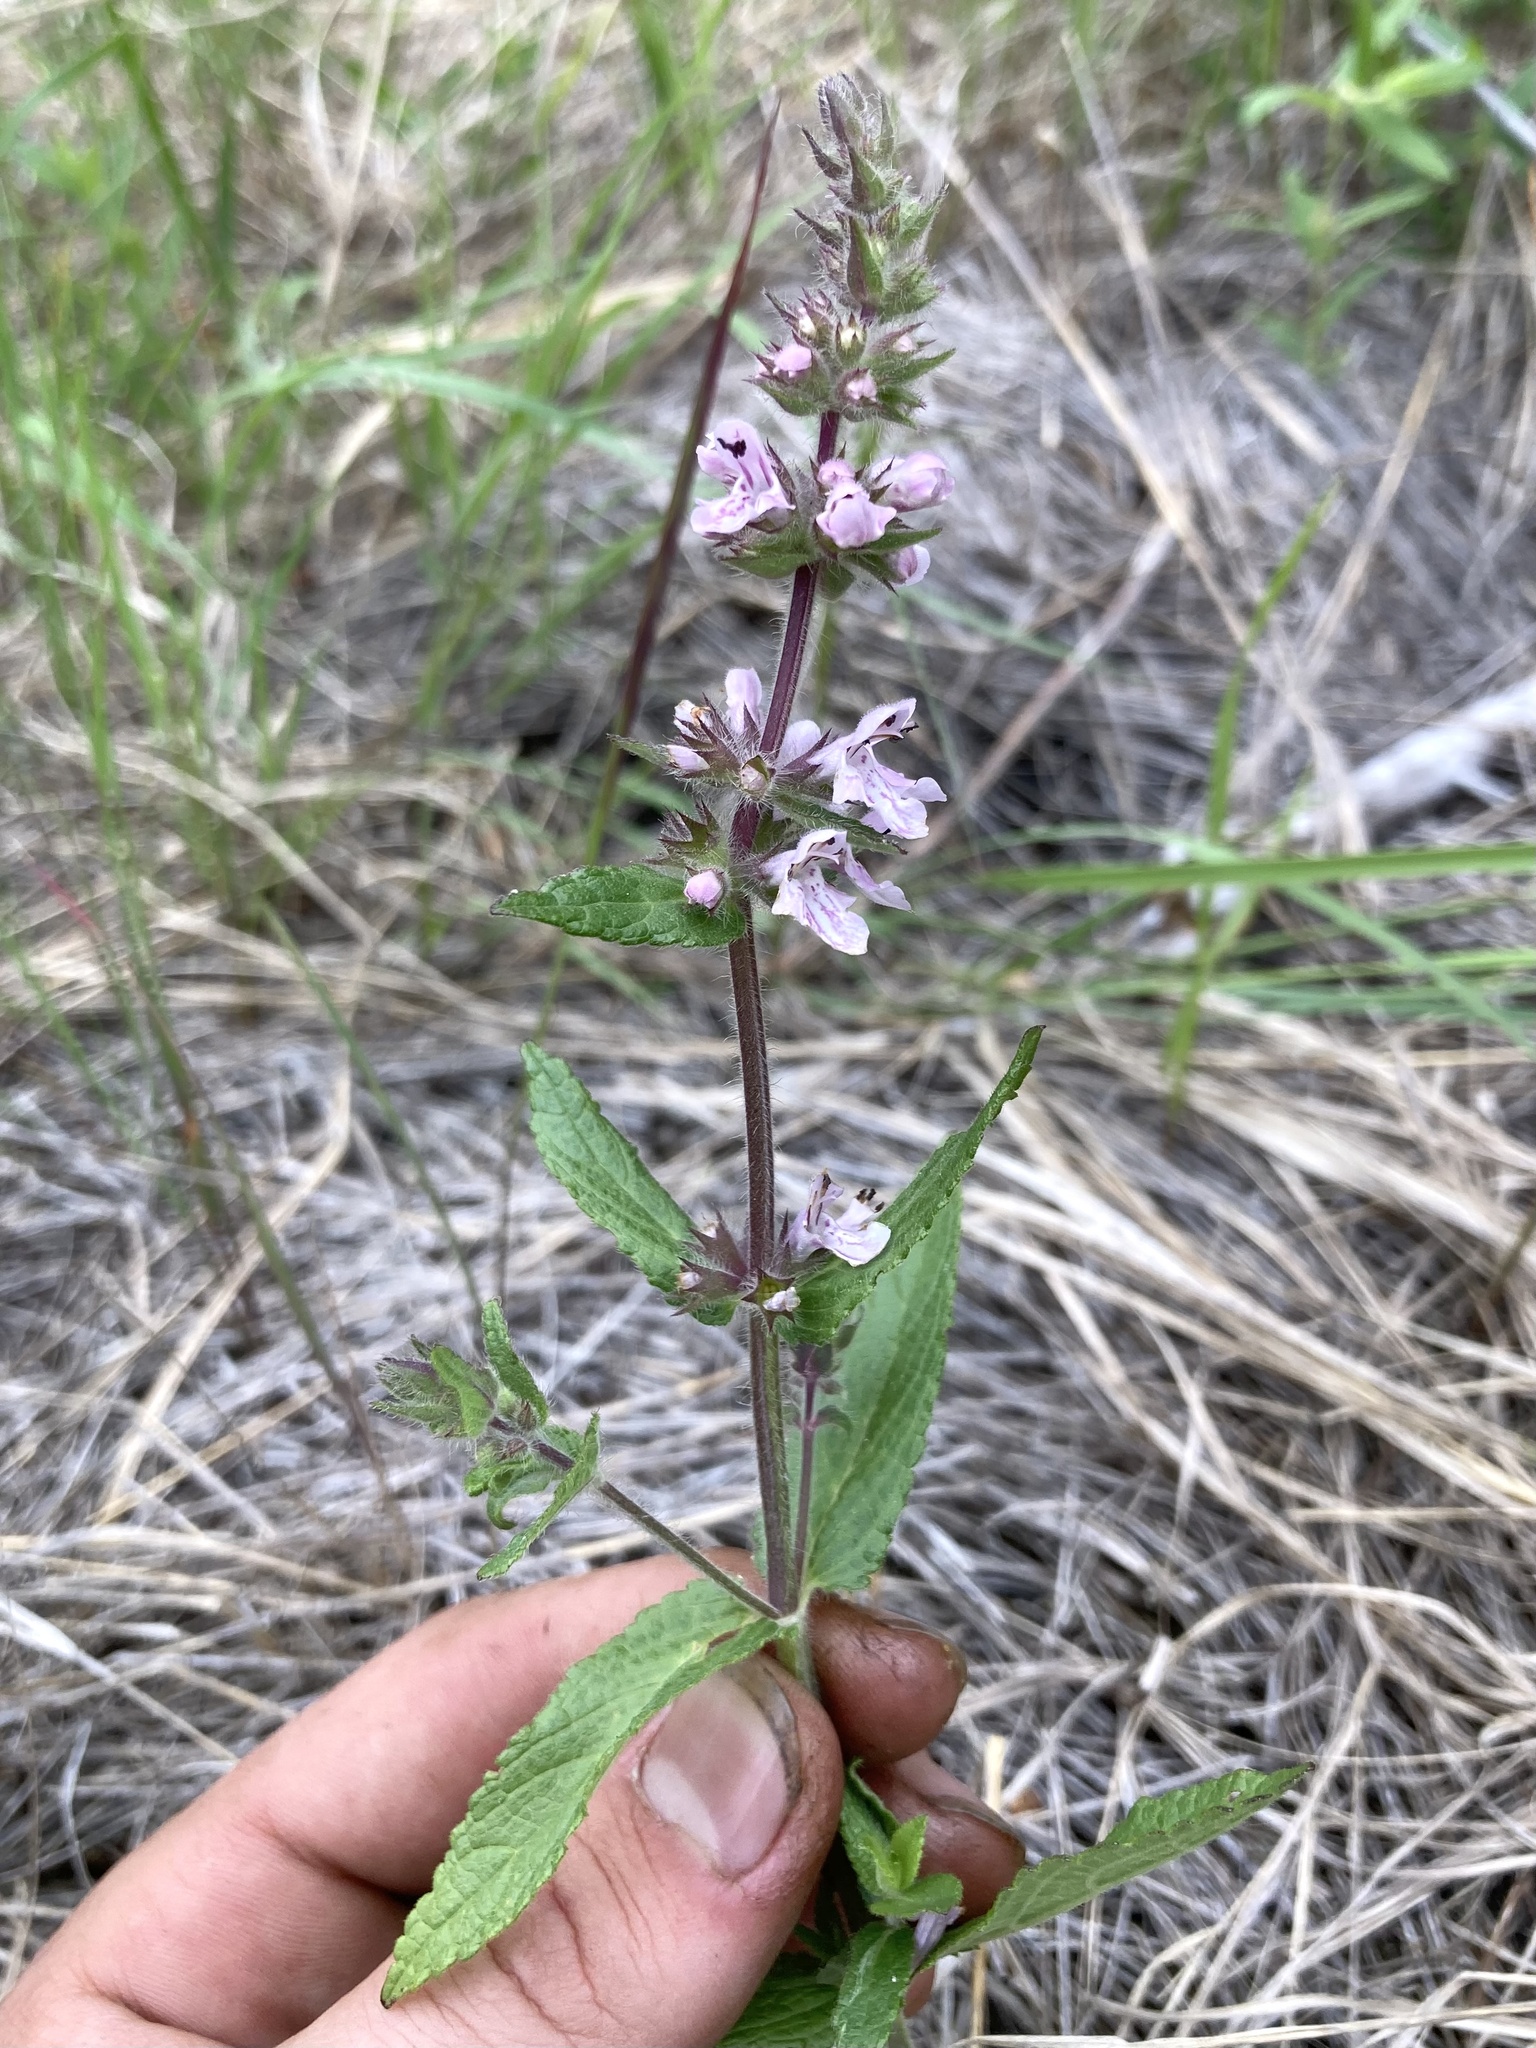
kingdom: Plantae
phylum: Tracheophyta
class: Magnoliopsida
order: Lamiales
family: Lamiaceae
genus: Stachys
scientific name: Stachys pilosa
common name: Hairy hedge-nettle
